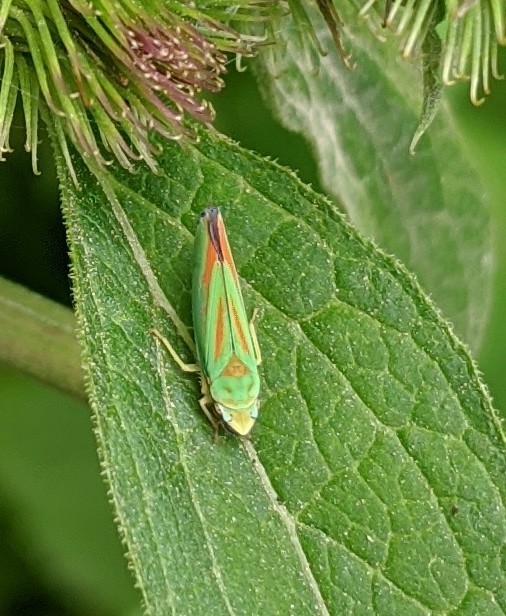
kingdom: Animalia
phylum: Arthropoda
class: Insecta
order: Hemiptera
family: Cicadellidae
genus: Graphocephala
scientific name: Graphocephala fennahi
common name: Rhododendron leafhopper
